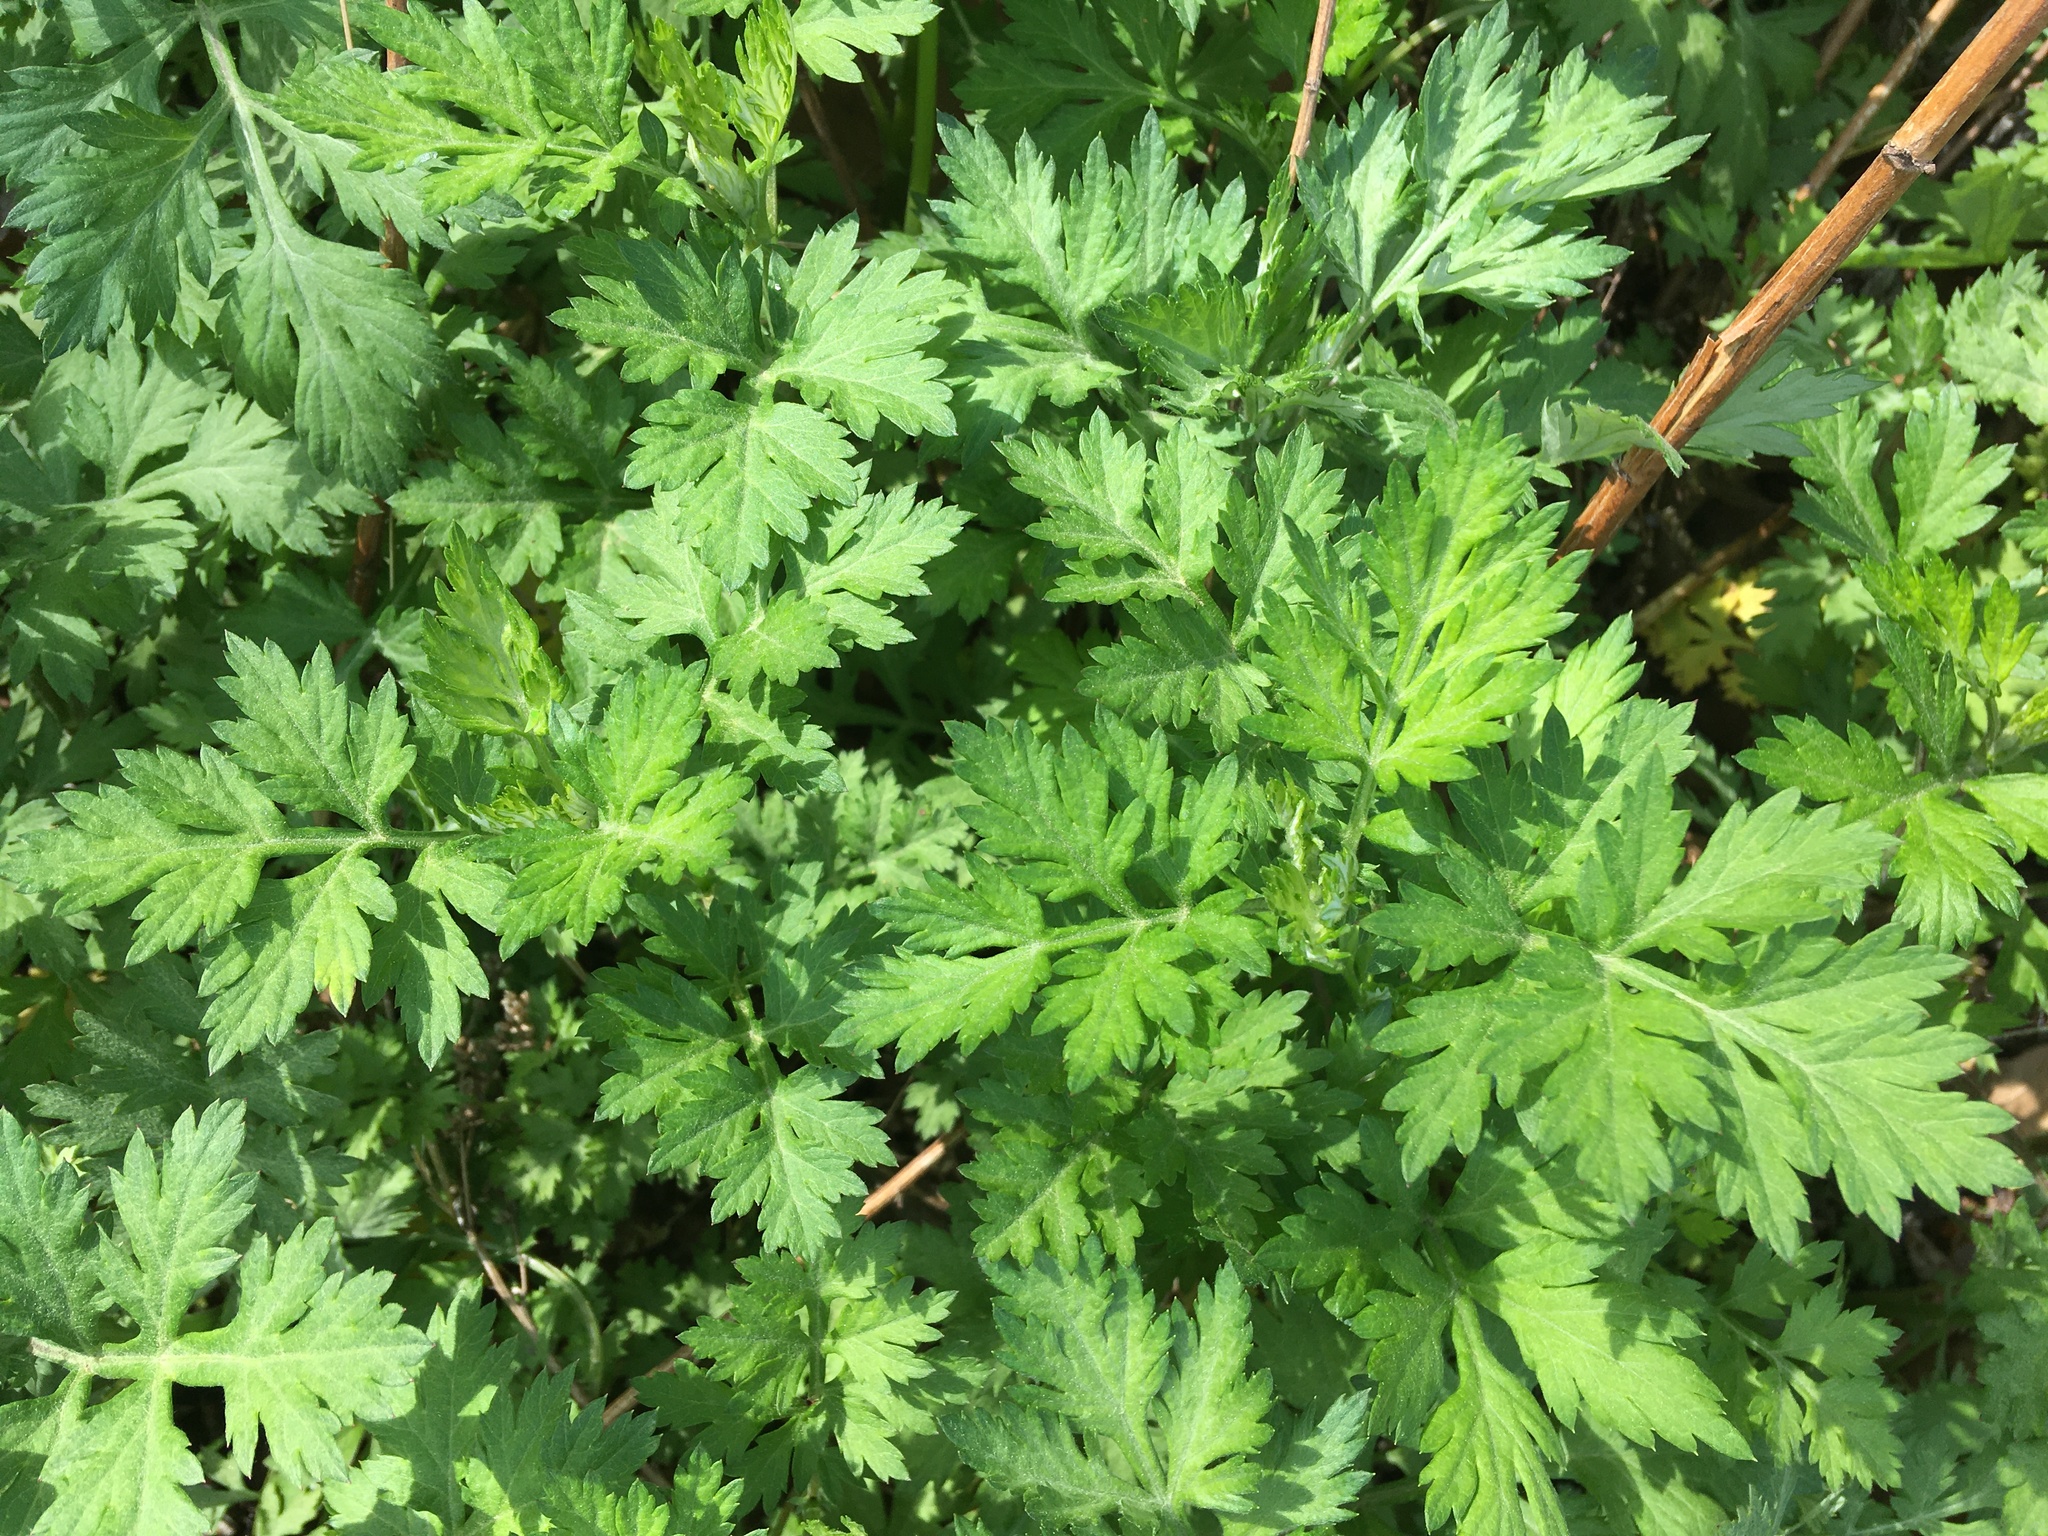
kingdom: Plantae
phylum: Tracheophyta
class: Magnoliopsida
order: Asterales
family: Asteraceae
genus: Artemisia
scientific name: Artemisia vulgaris
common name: Mugwort
